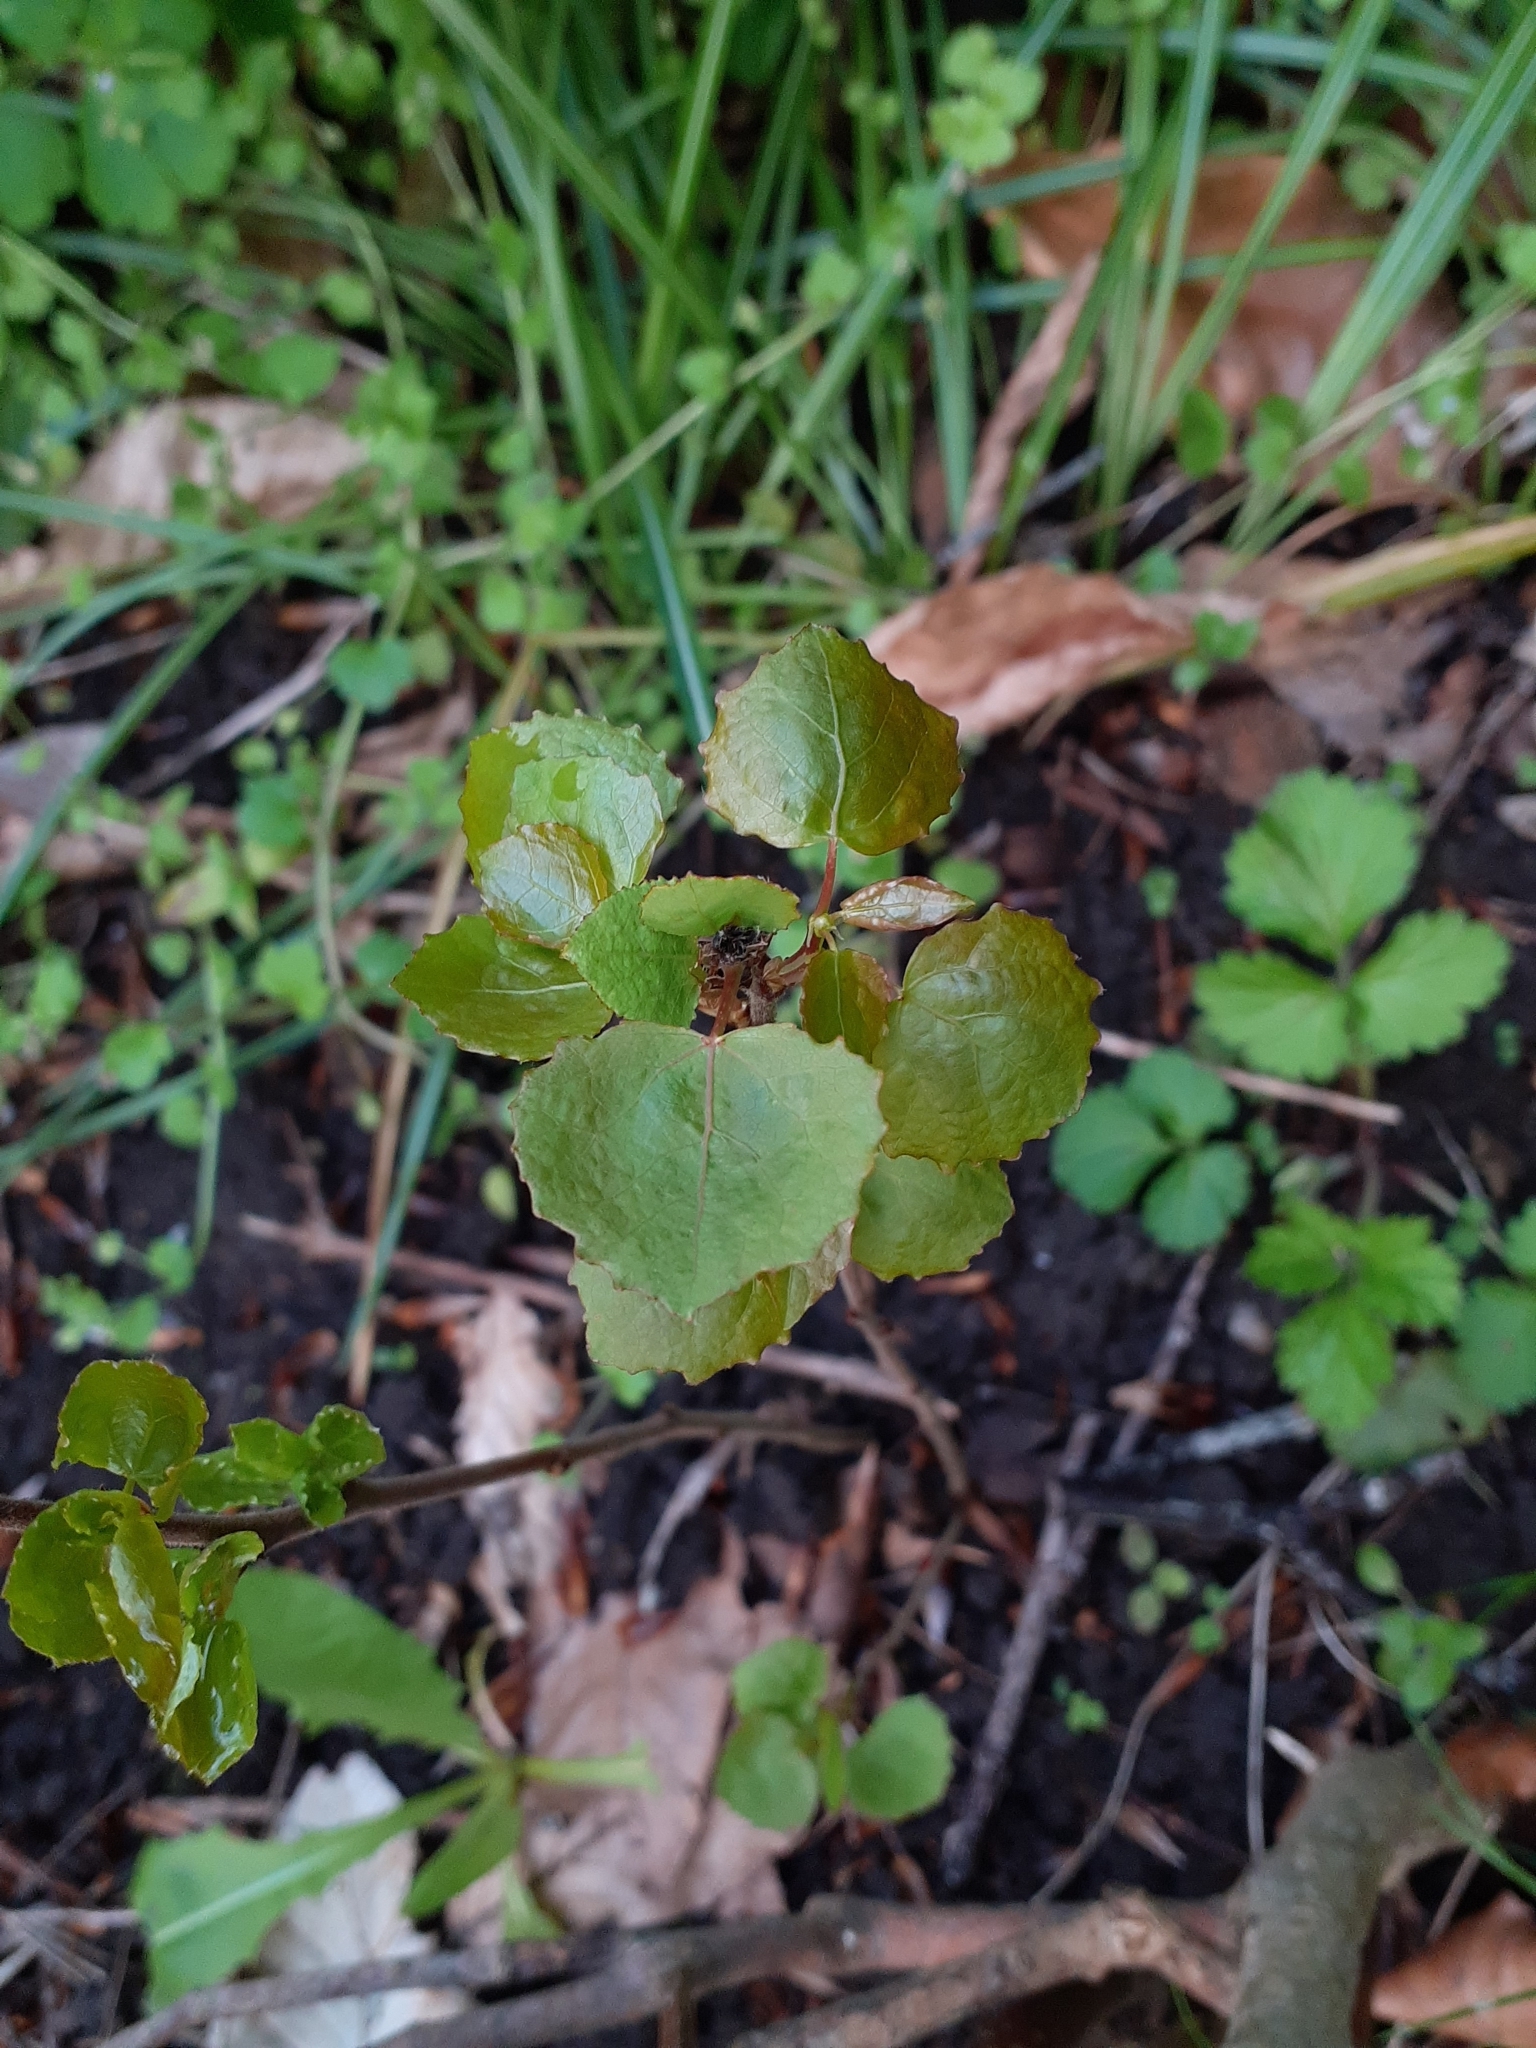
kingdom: Plantae
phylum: Tracheophyta
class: Magnoliopsida
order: Malpighiales
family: Salicaceae
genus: Populus
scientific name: Populus tremula
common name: European aspen
